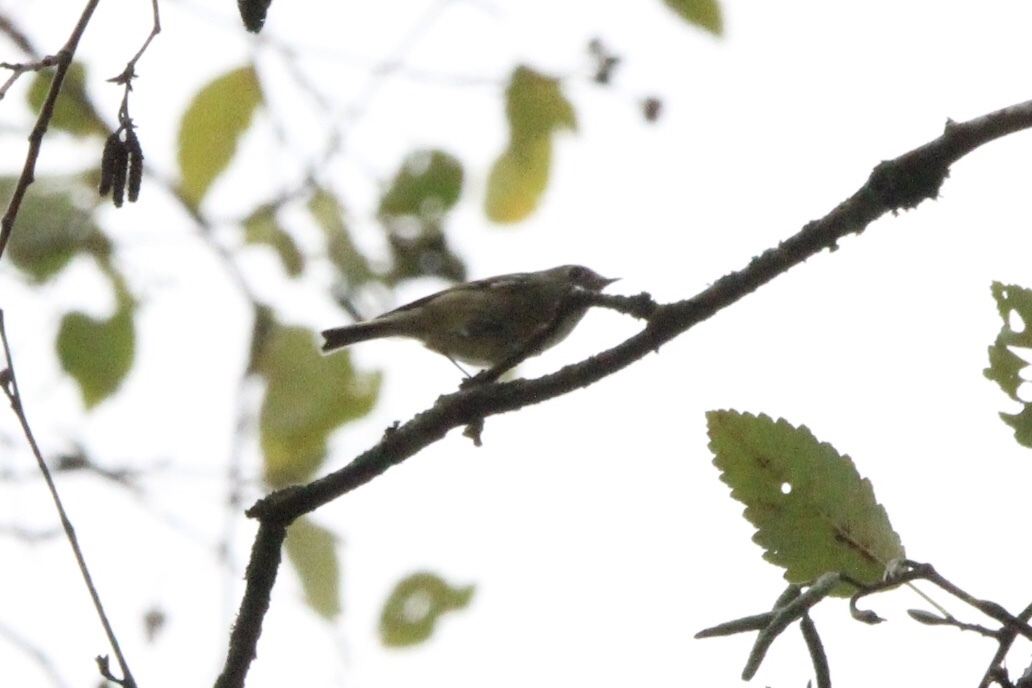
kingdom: Animalia
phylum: Chordata
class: Aves
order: Passeriformes
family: Regulidae
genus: Regulus
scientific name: Regulus calendula
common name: Ruby-crowned kinglet
